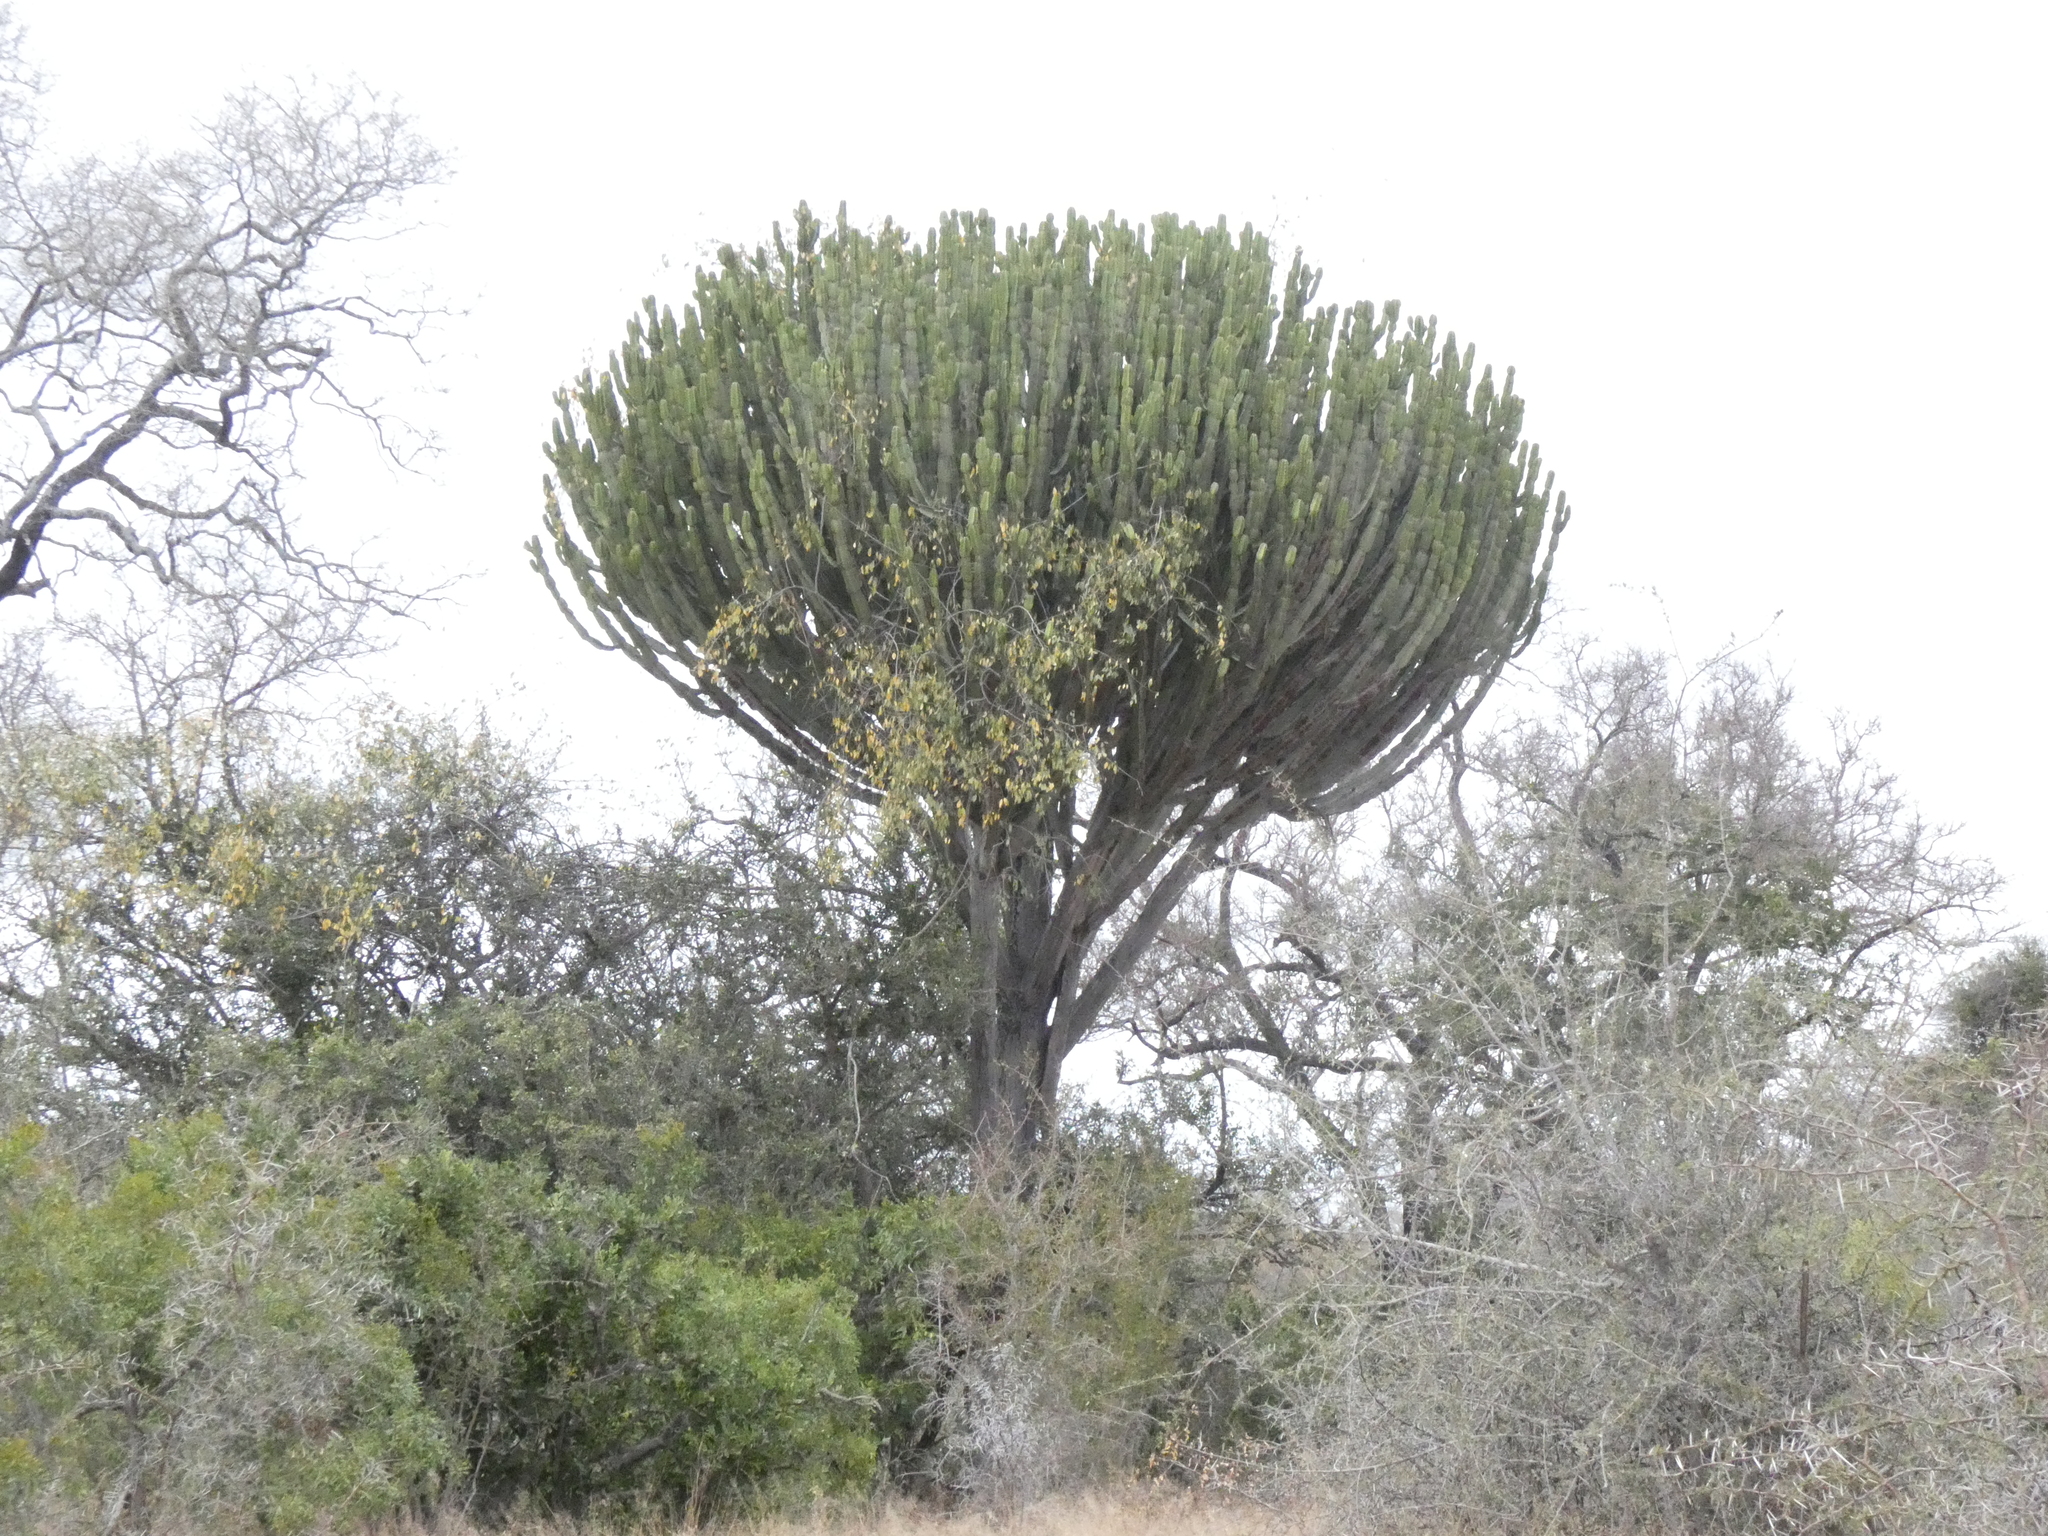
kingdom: Plantae
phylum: Tracheophyta
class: Magnoliopsida
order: Malpighiales
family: Euphorbiaceae
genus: Euphorbia
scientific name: Euphorbia ingens
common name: Cactus spurge
